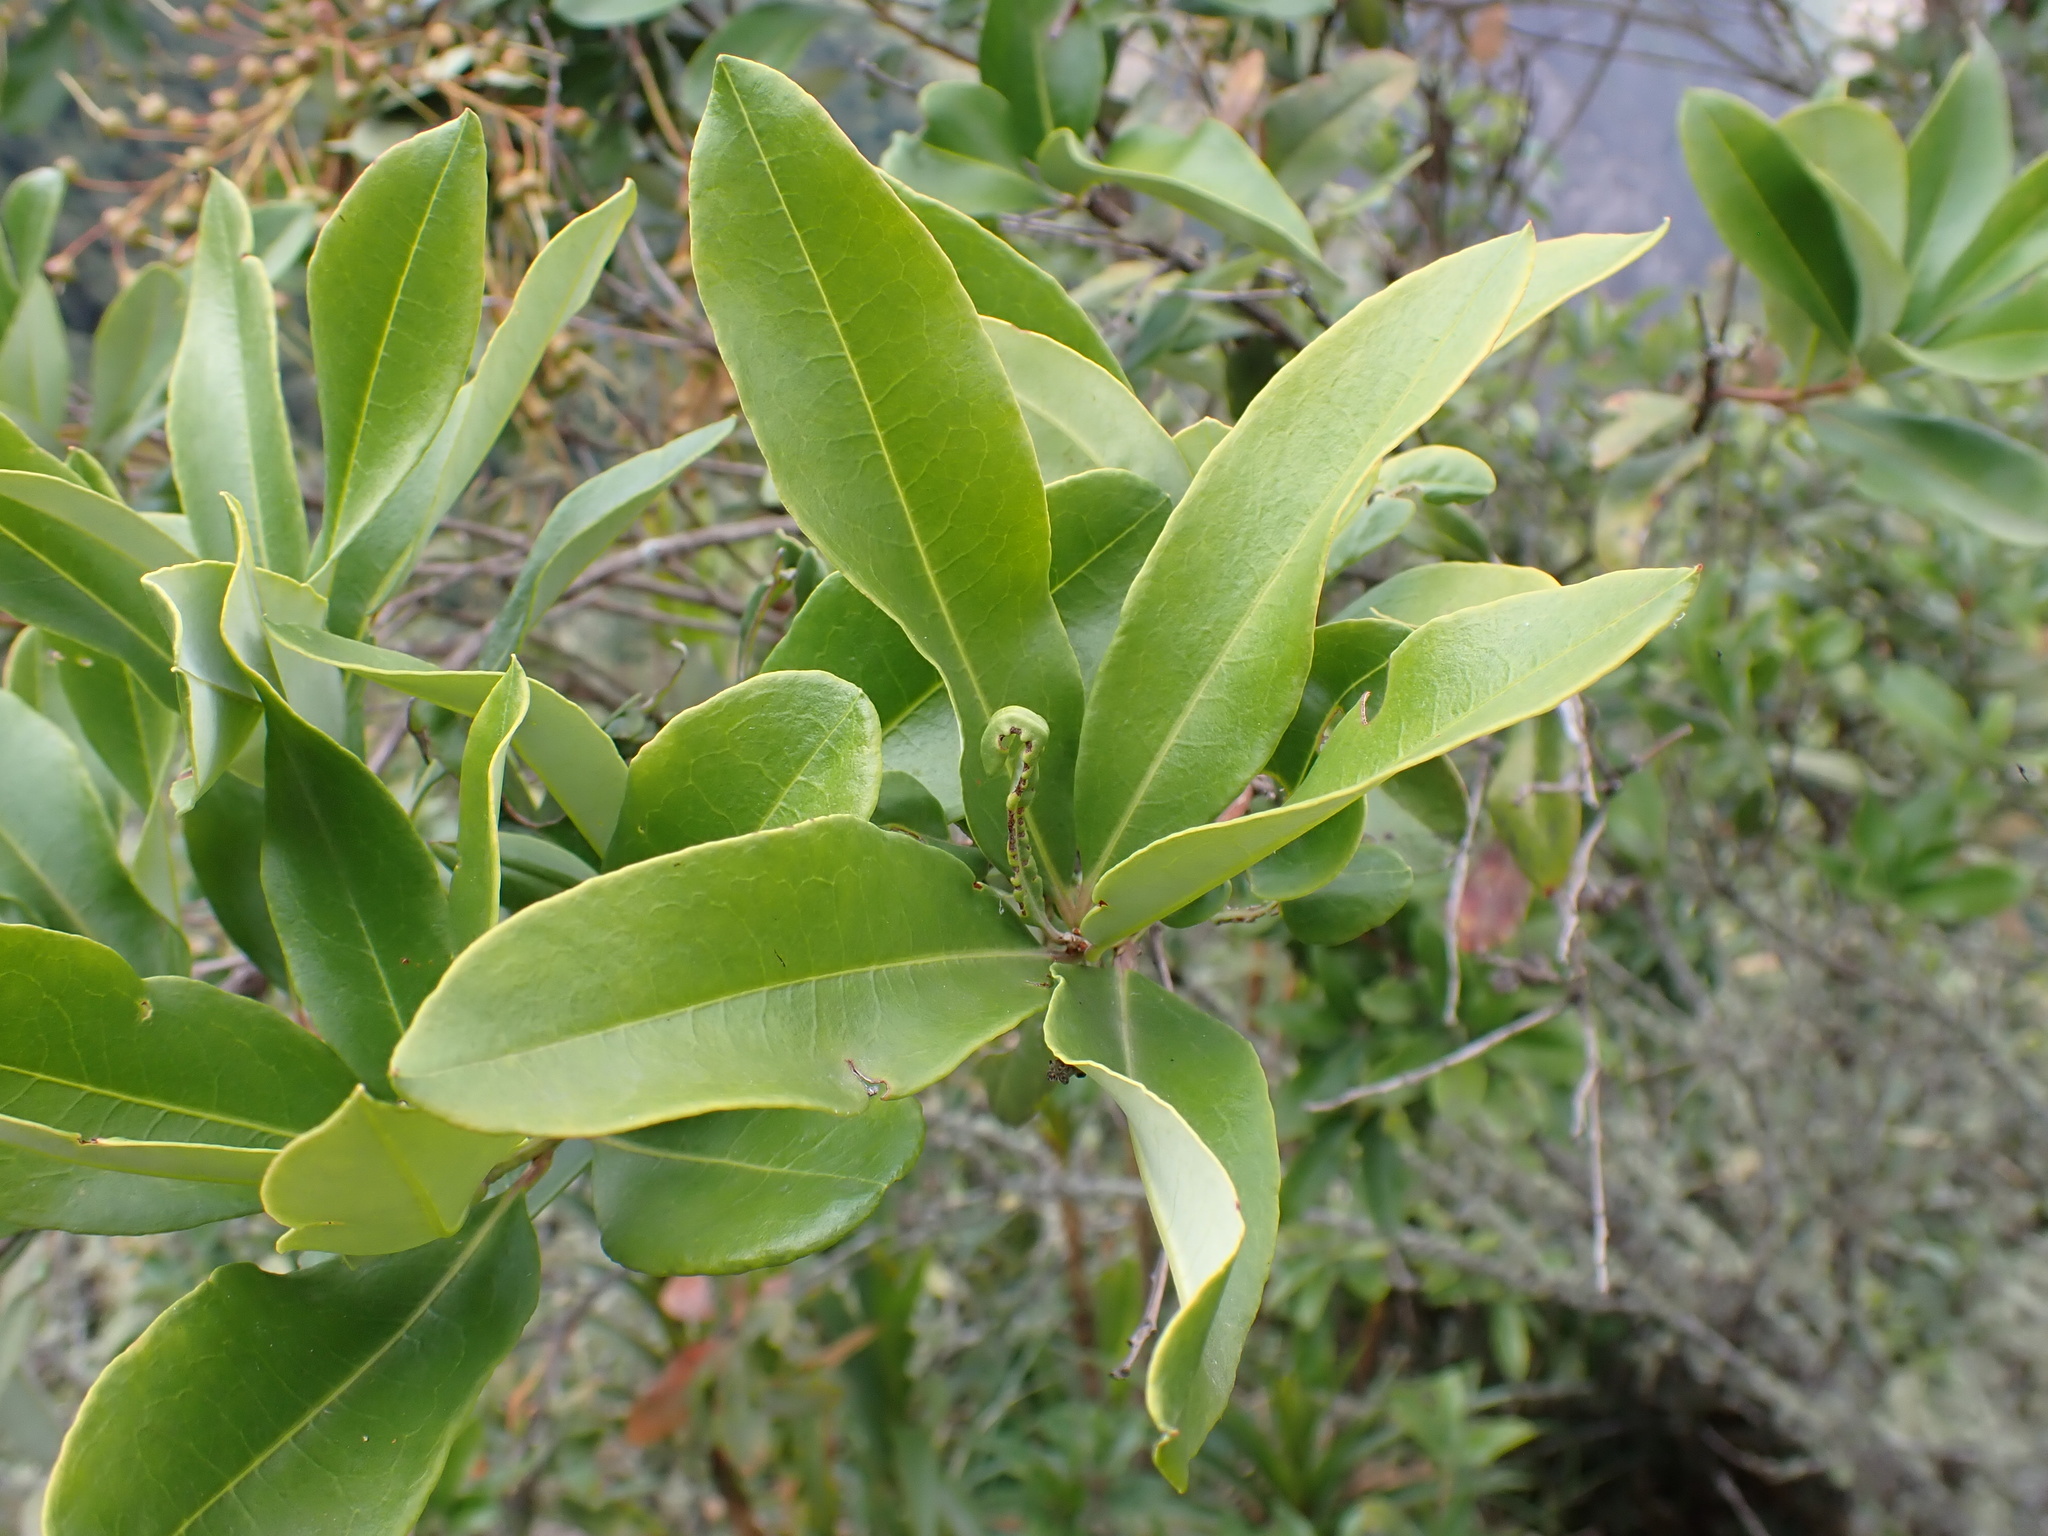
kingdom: Plantae
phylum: Tracheophyta
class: Magnoliopsida
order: Ericales
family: Ericaceae
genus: Bejaria
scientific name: Bejaria aestuans
